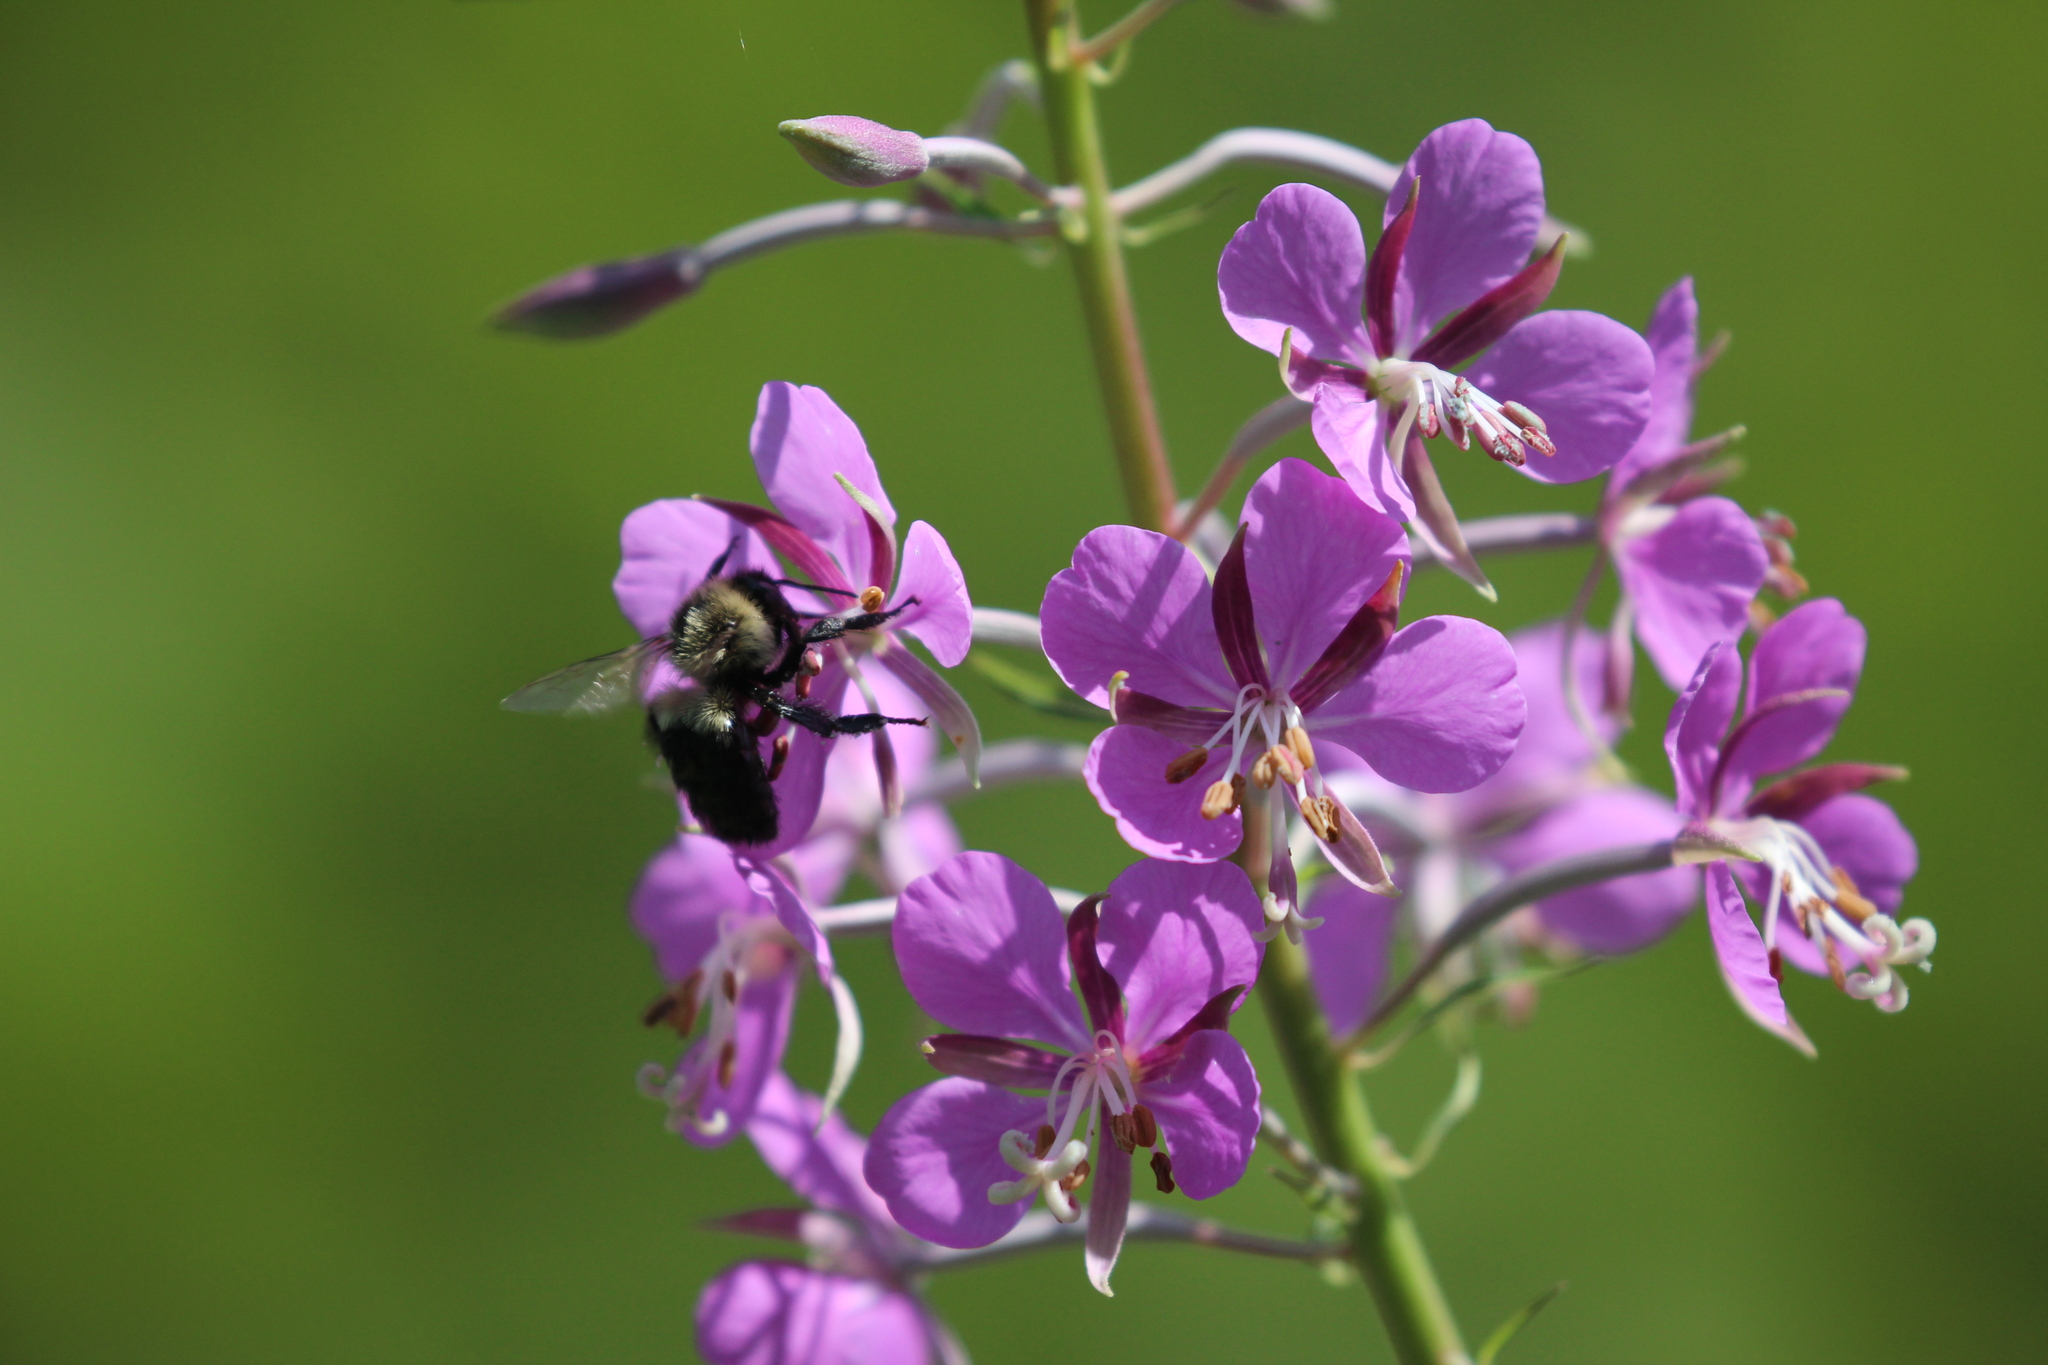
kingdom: Animalia
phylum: Arthropoda
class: Insecta
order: Hymenoptera
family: Apidae
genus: Bombus
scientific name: Bombus impatiens
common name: Common eastern bumble bee
